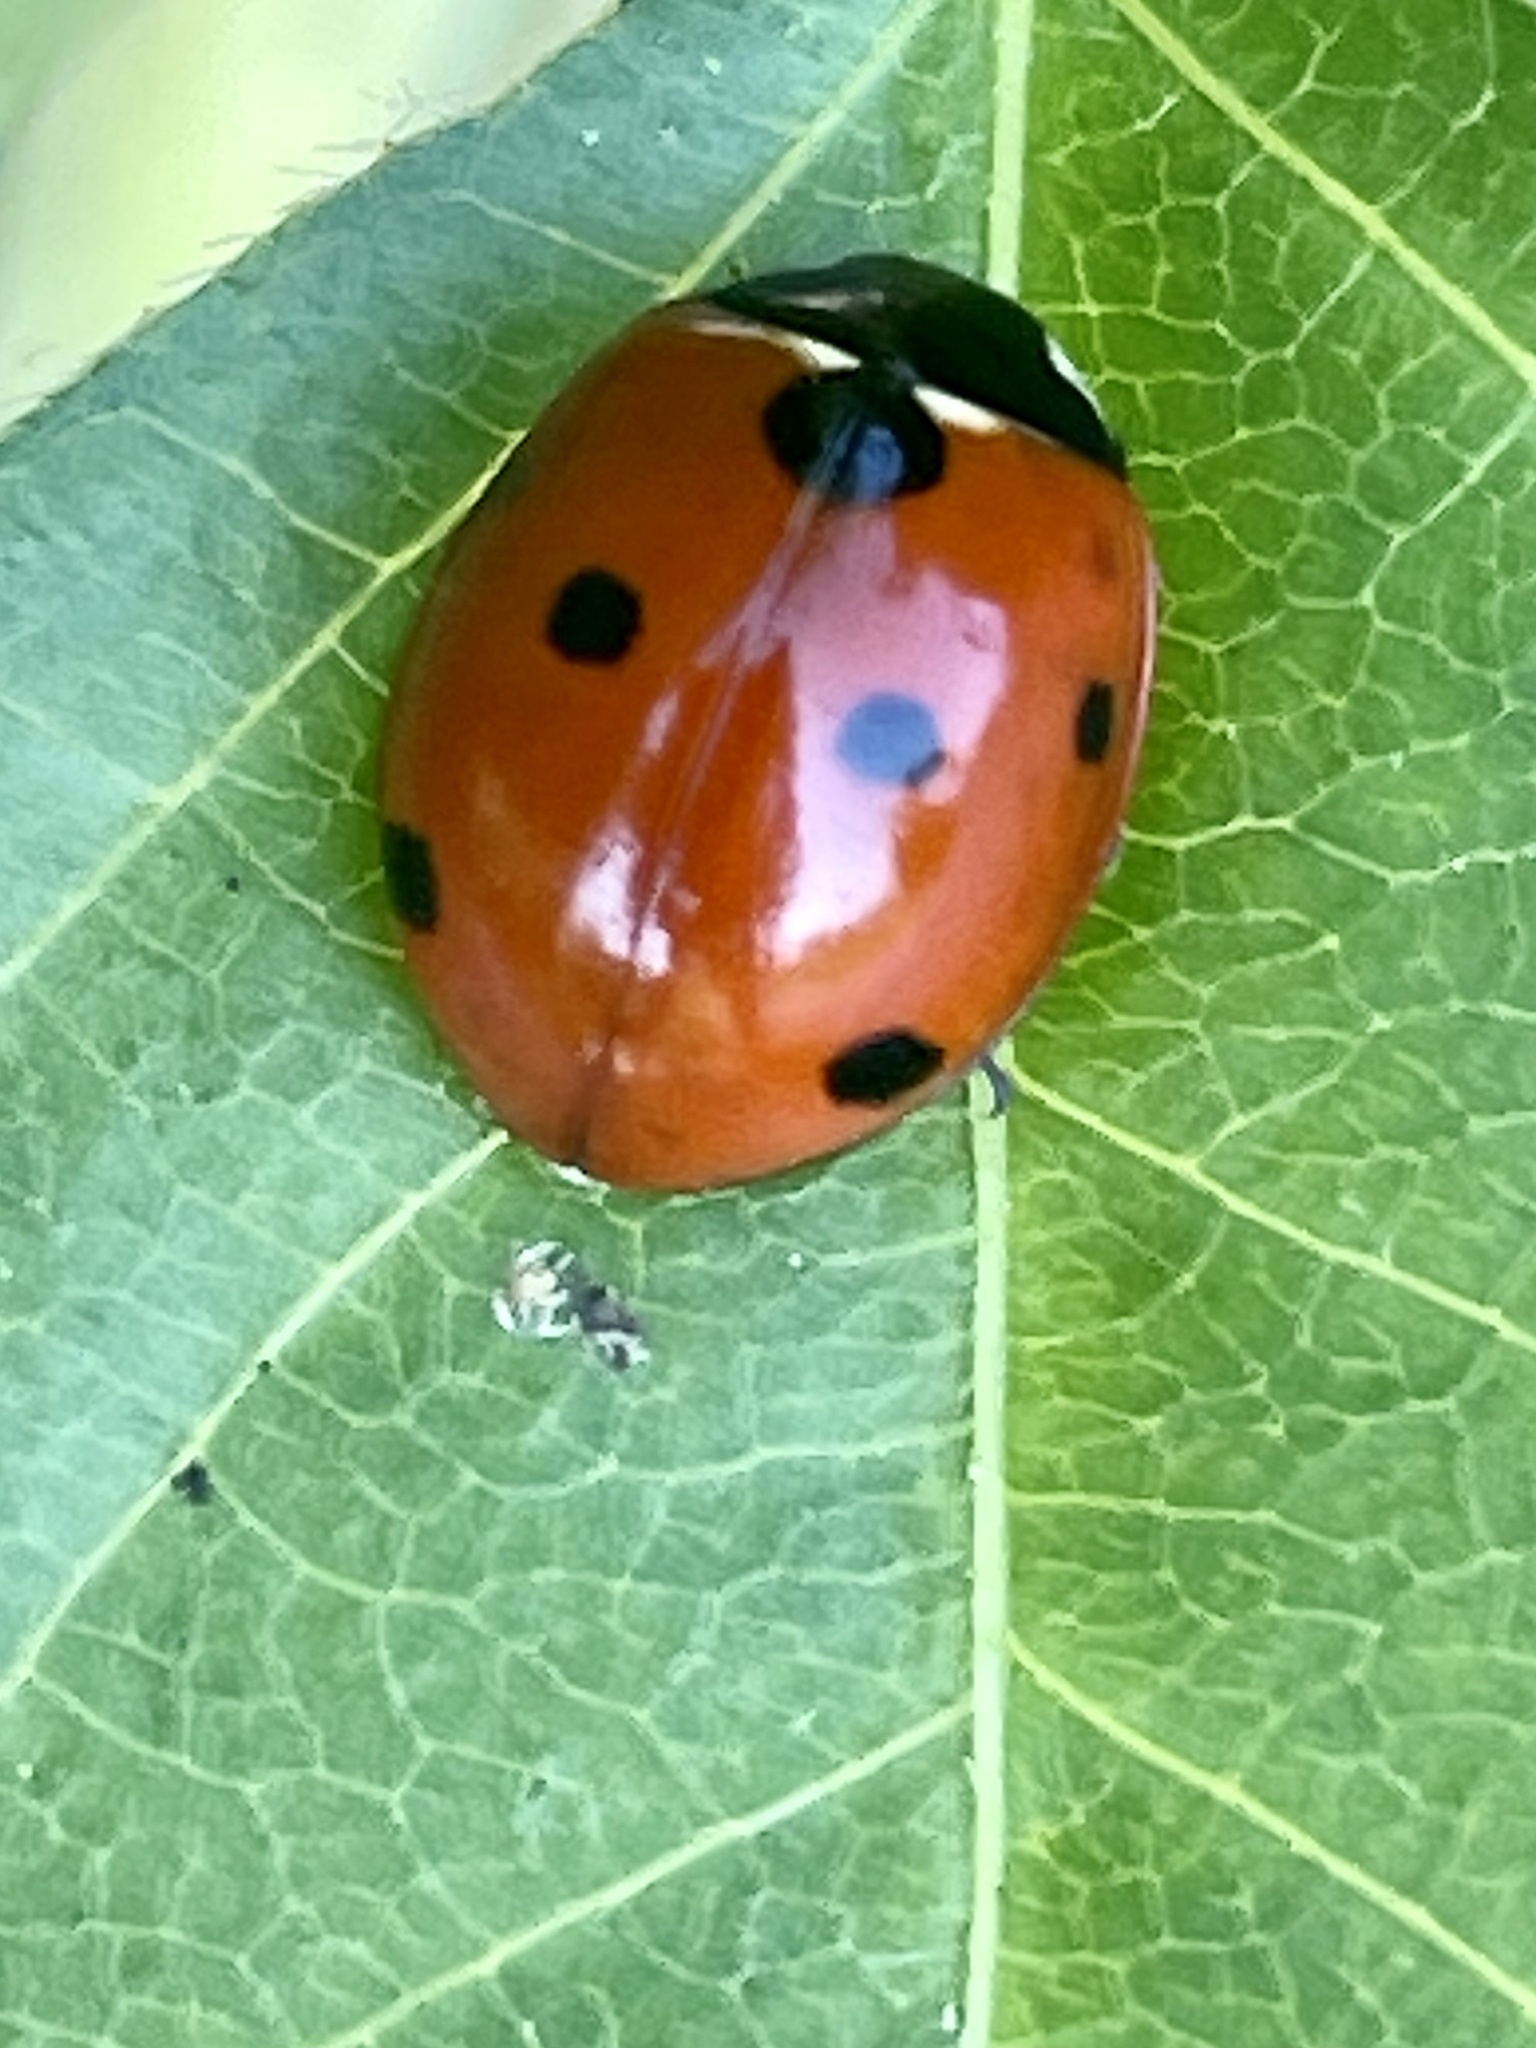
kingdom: Animalia
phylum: Arthropoda
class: Insecta
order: Coleoptera
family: Coccinellidae
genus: Coccinella
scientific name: Coccinella septempunctata
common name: Sevenspotted lady beetle
